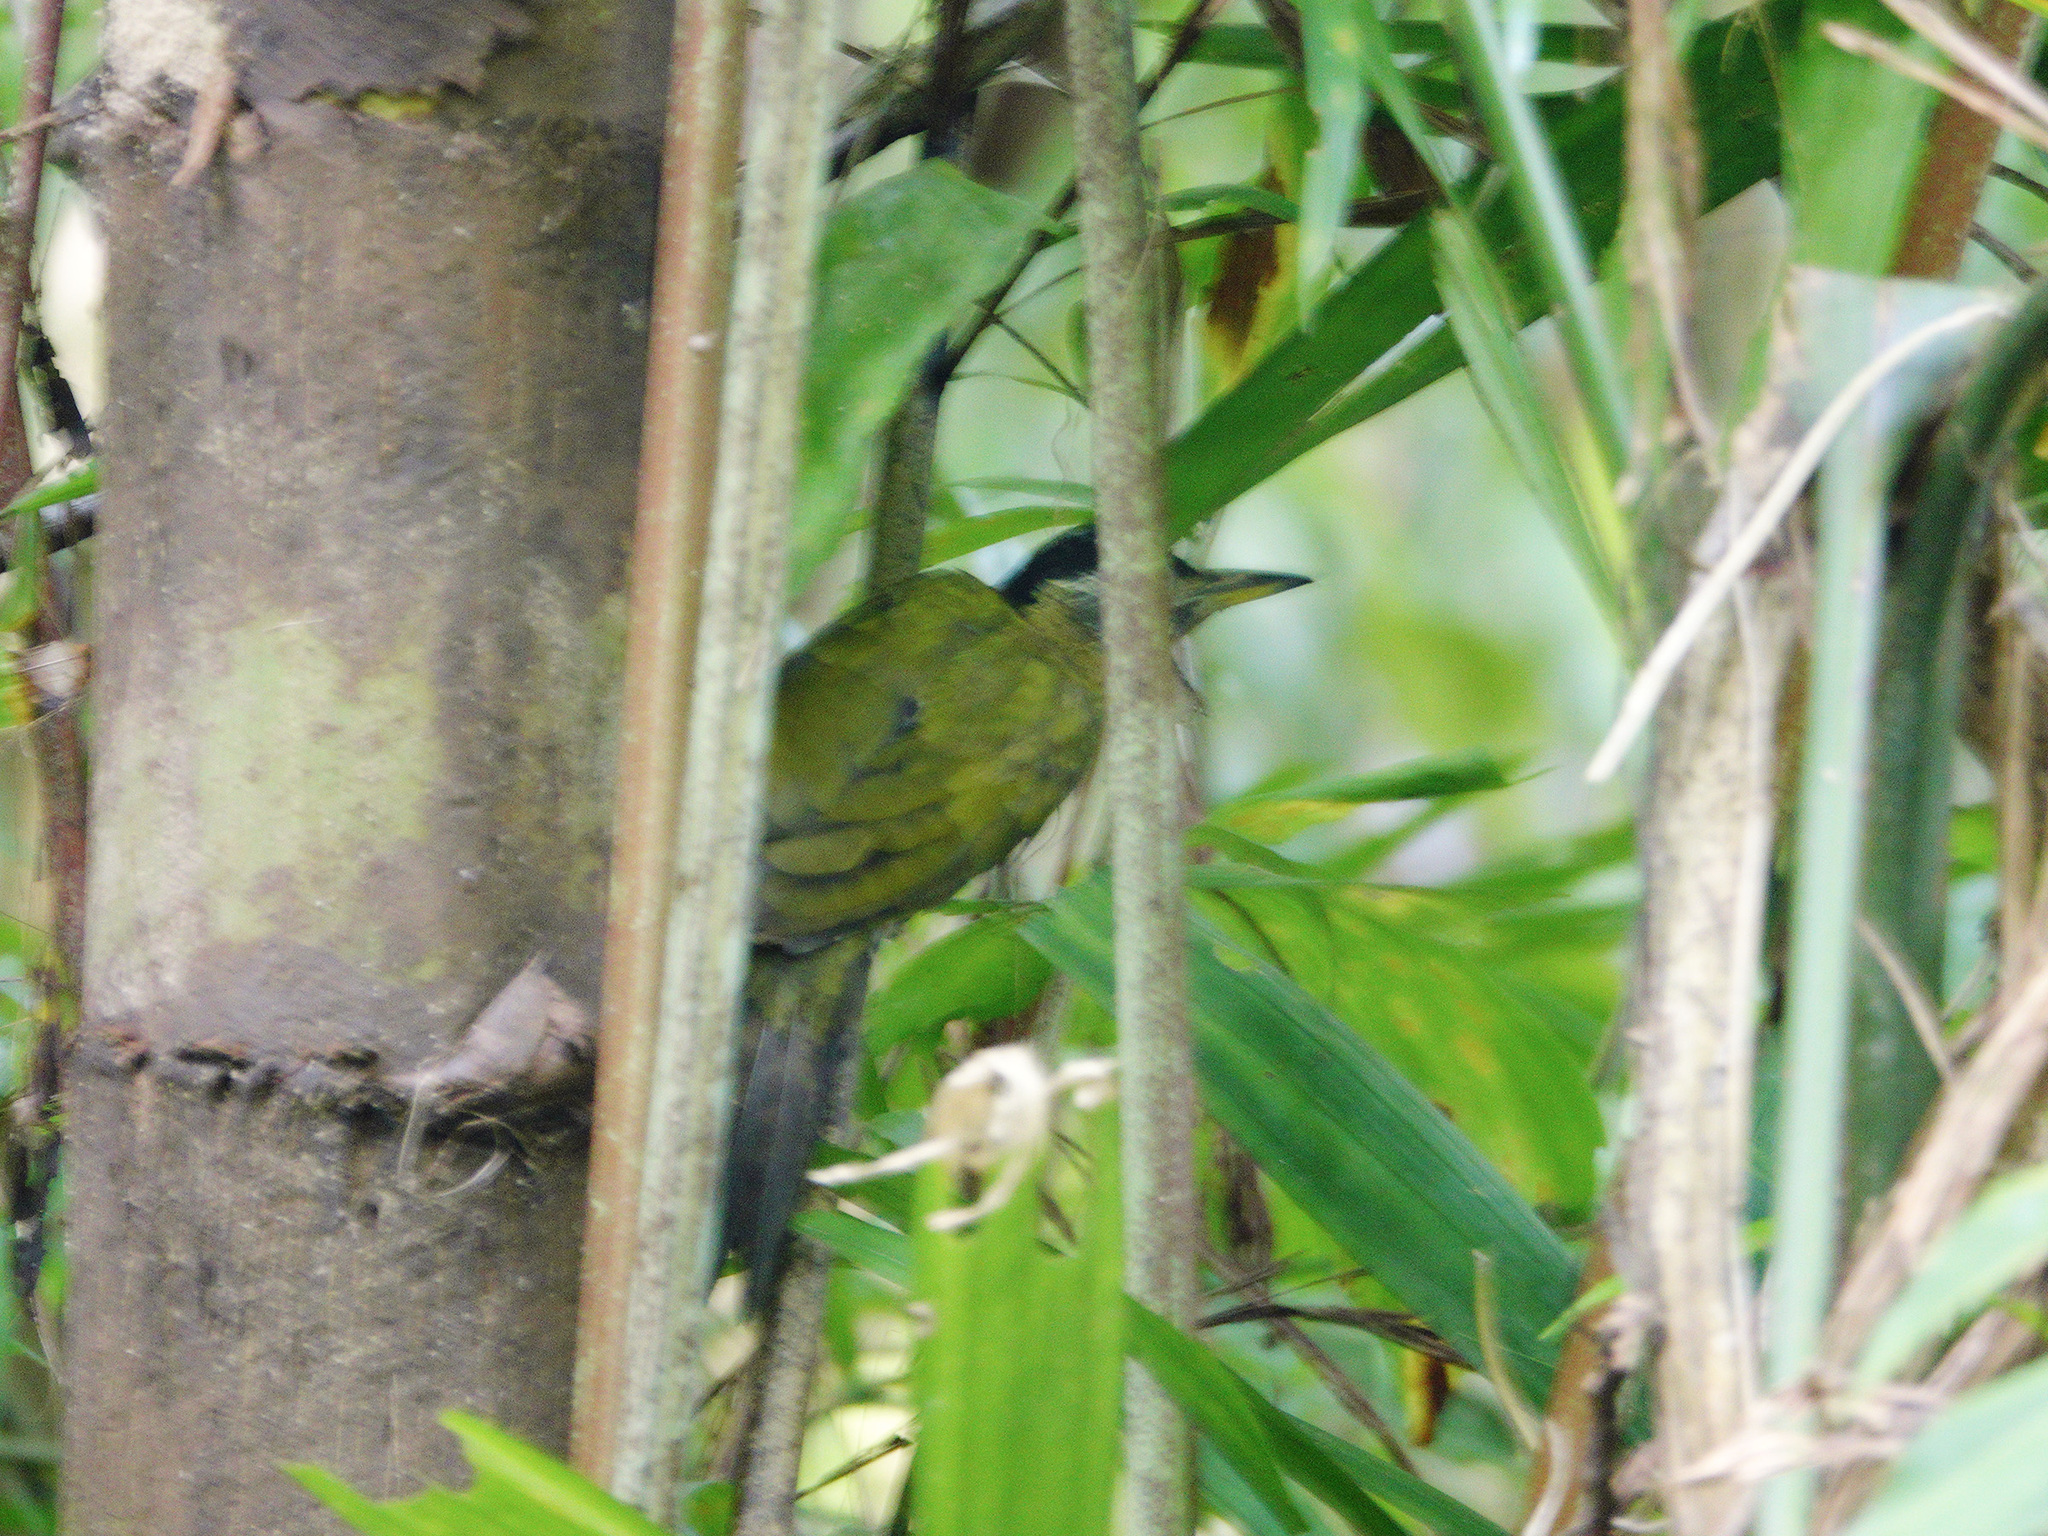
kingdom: Animalia
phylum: Chordata
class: Aves
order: Piciformes
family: Picidae
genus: Picus
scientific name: Picus vittatus
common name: Laced woodpecker
